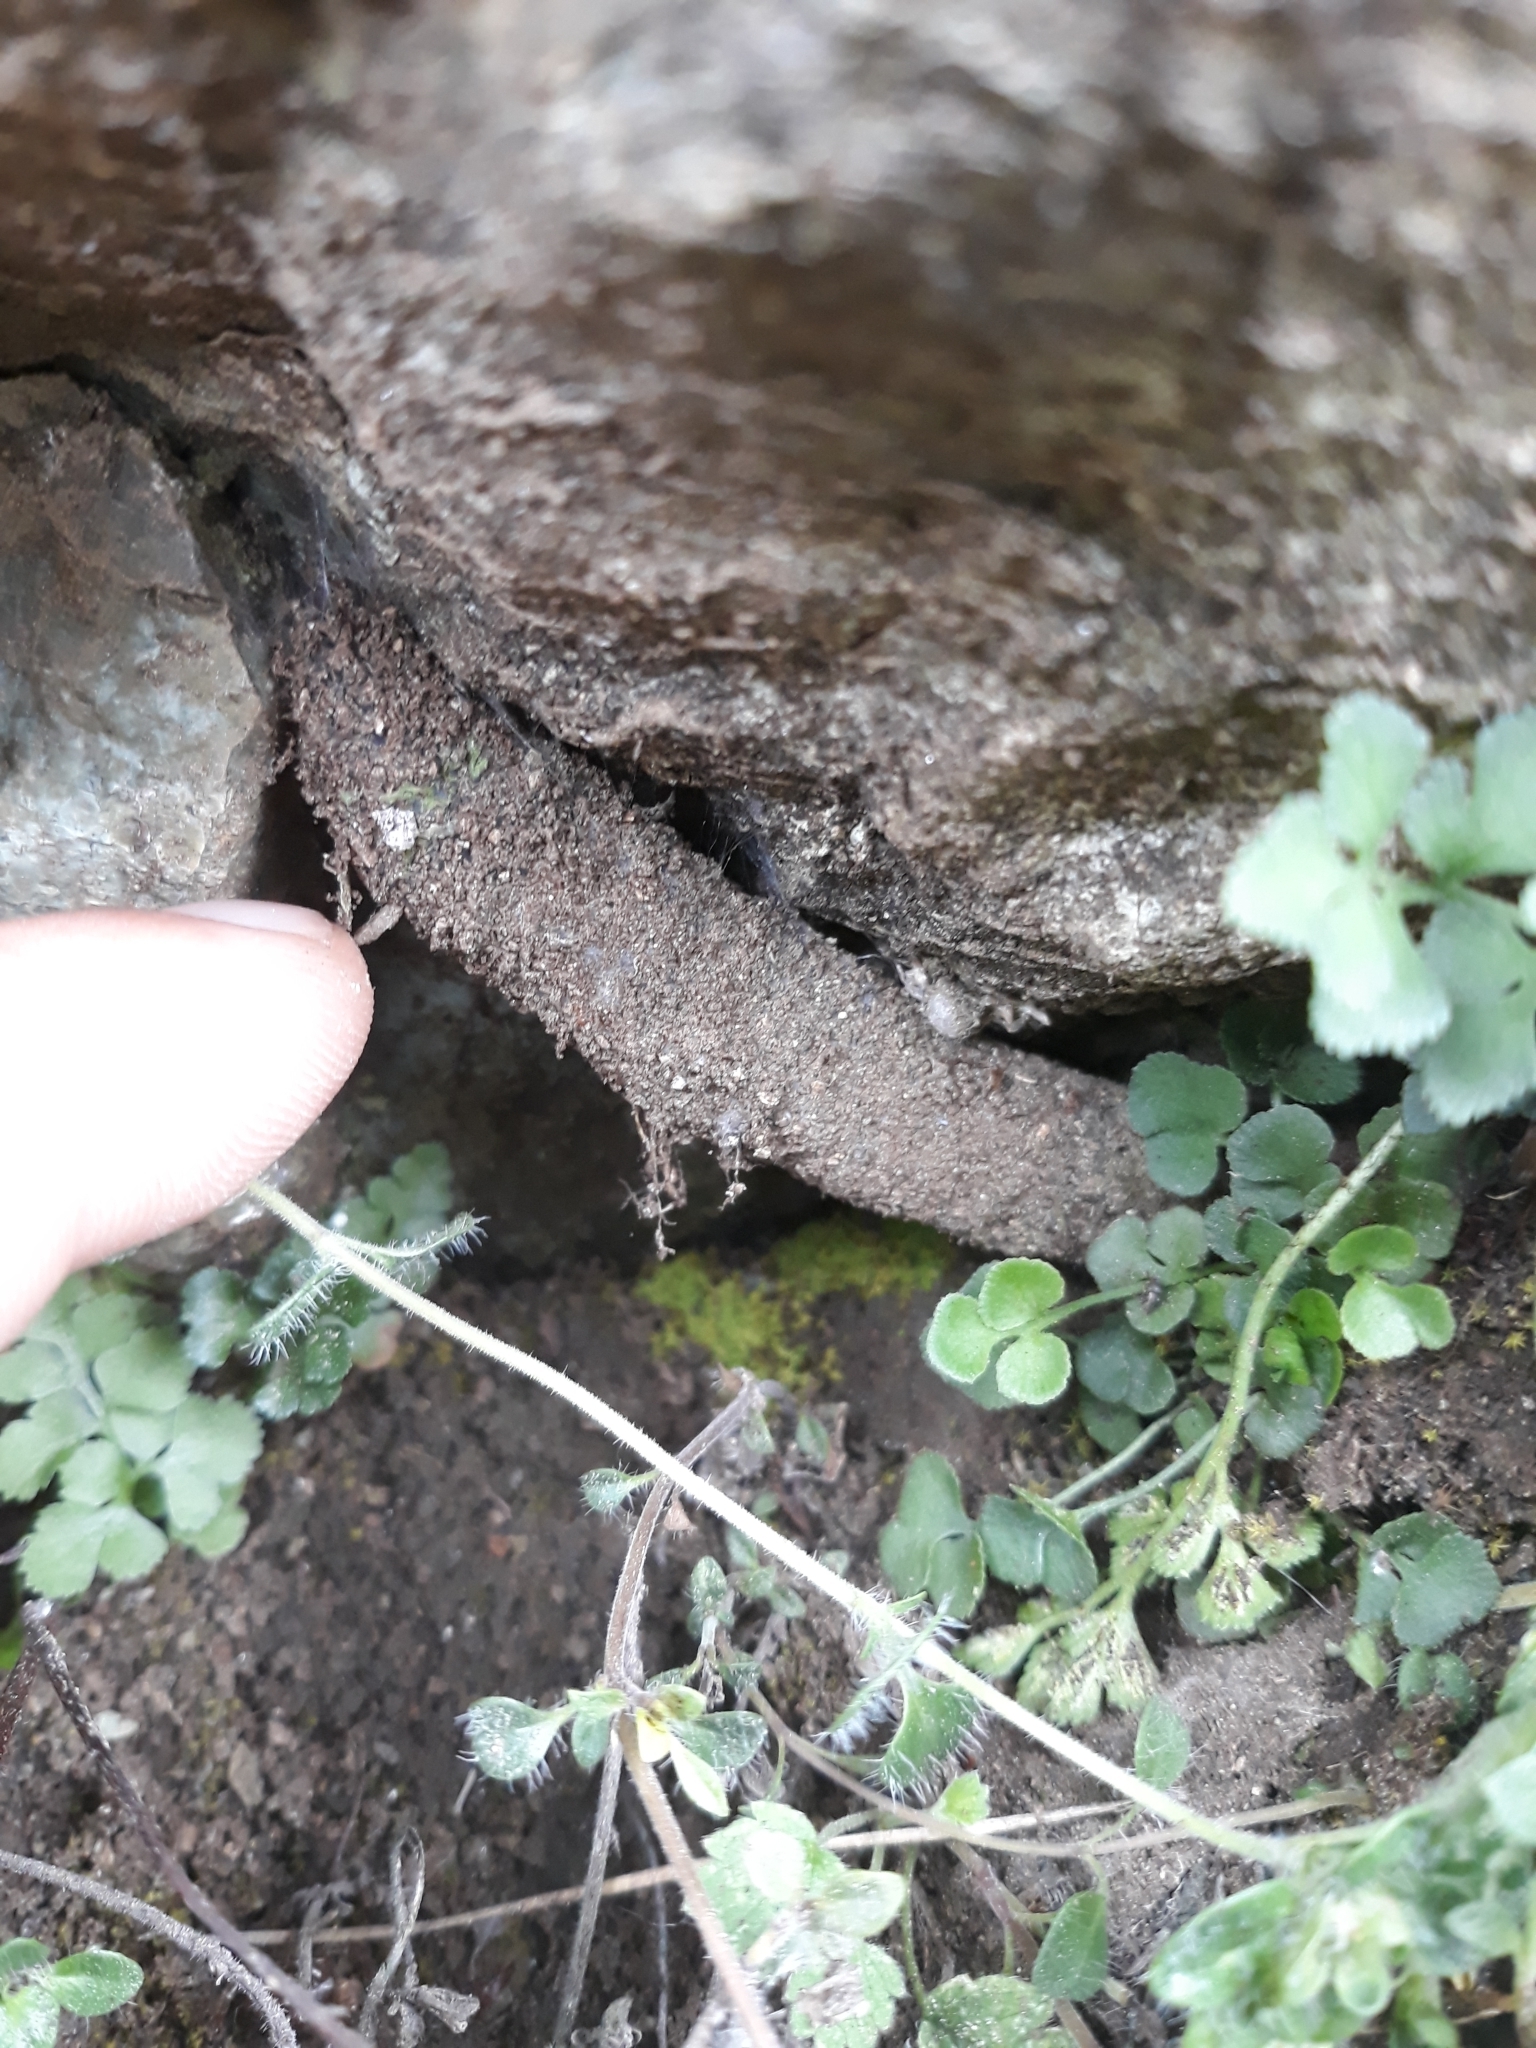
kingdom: Animalia
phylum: Arthropoda
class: Arachnida
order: Araneae
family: Atypidae
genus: Atypus
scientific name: Atypus muralis
